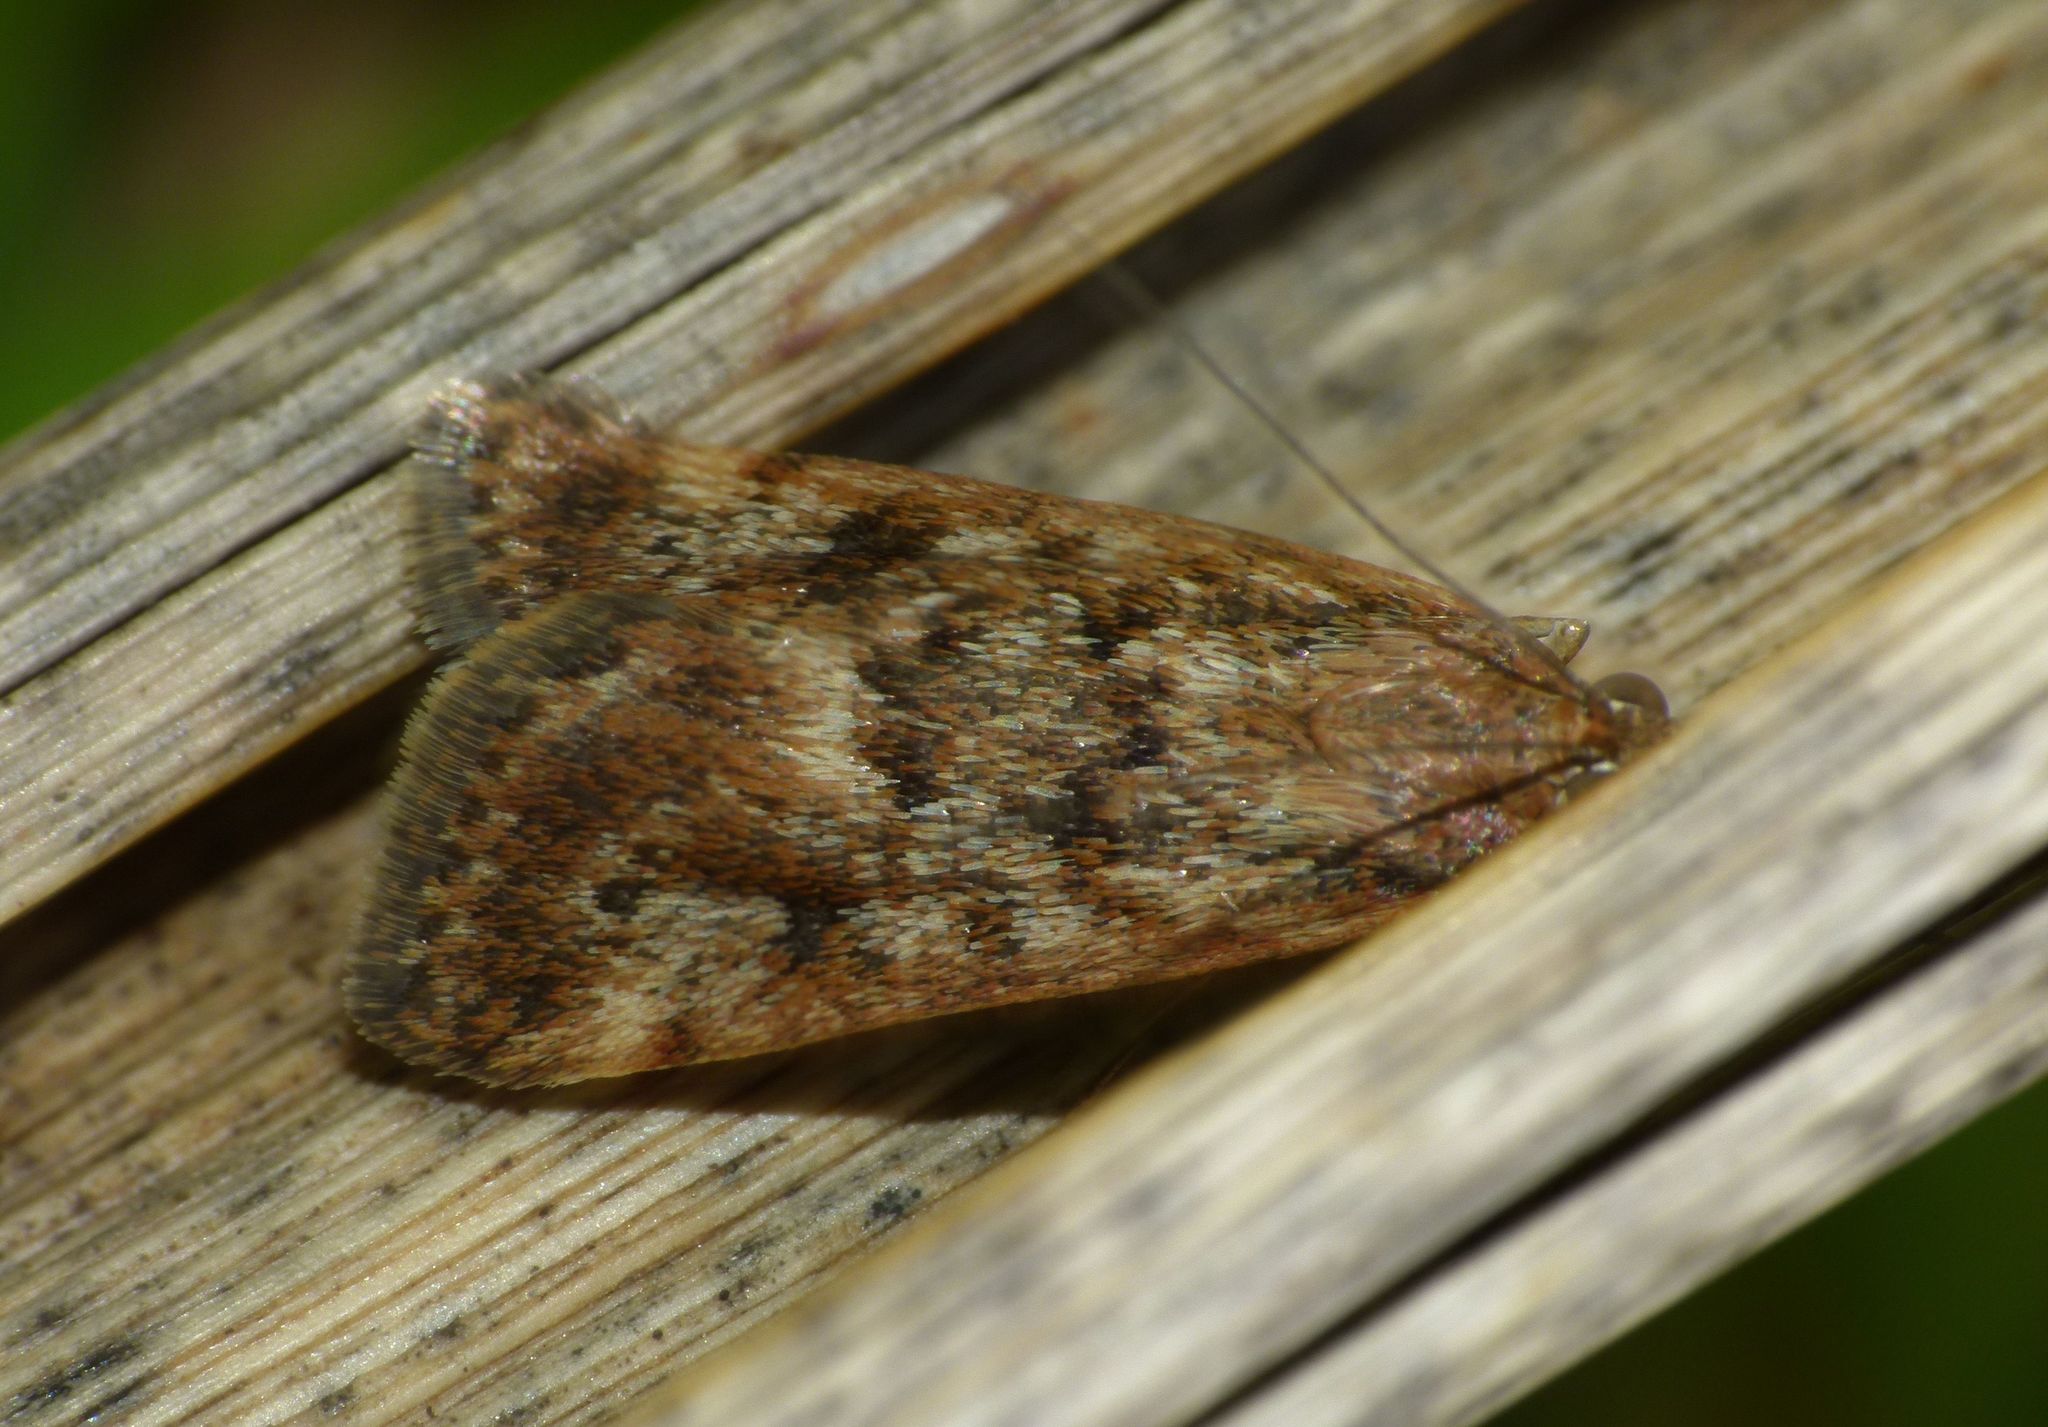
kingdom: Animalia
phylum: Arthropoda
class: Insecta
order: Lepidoptera
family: Crambidae
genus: Achyra
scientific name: Achyra affinitalis
